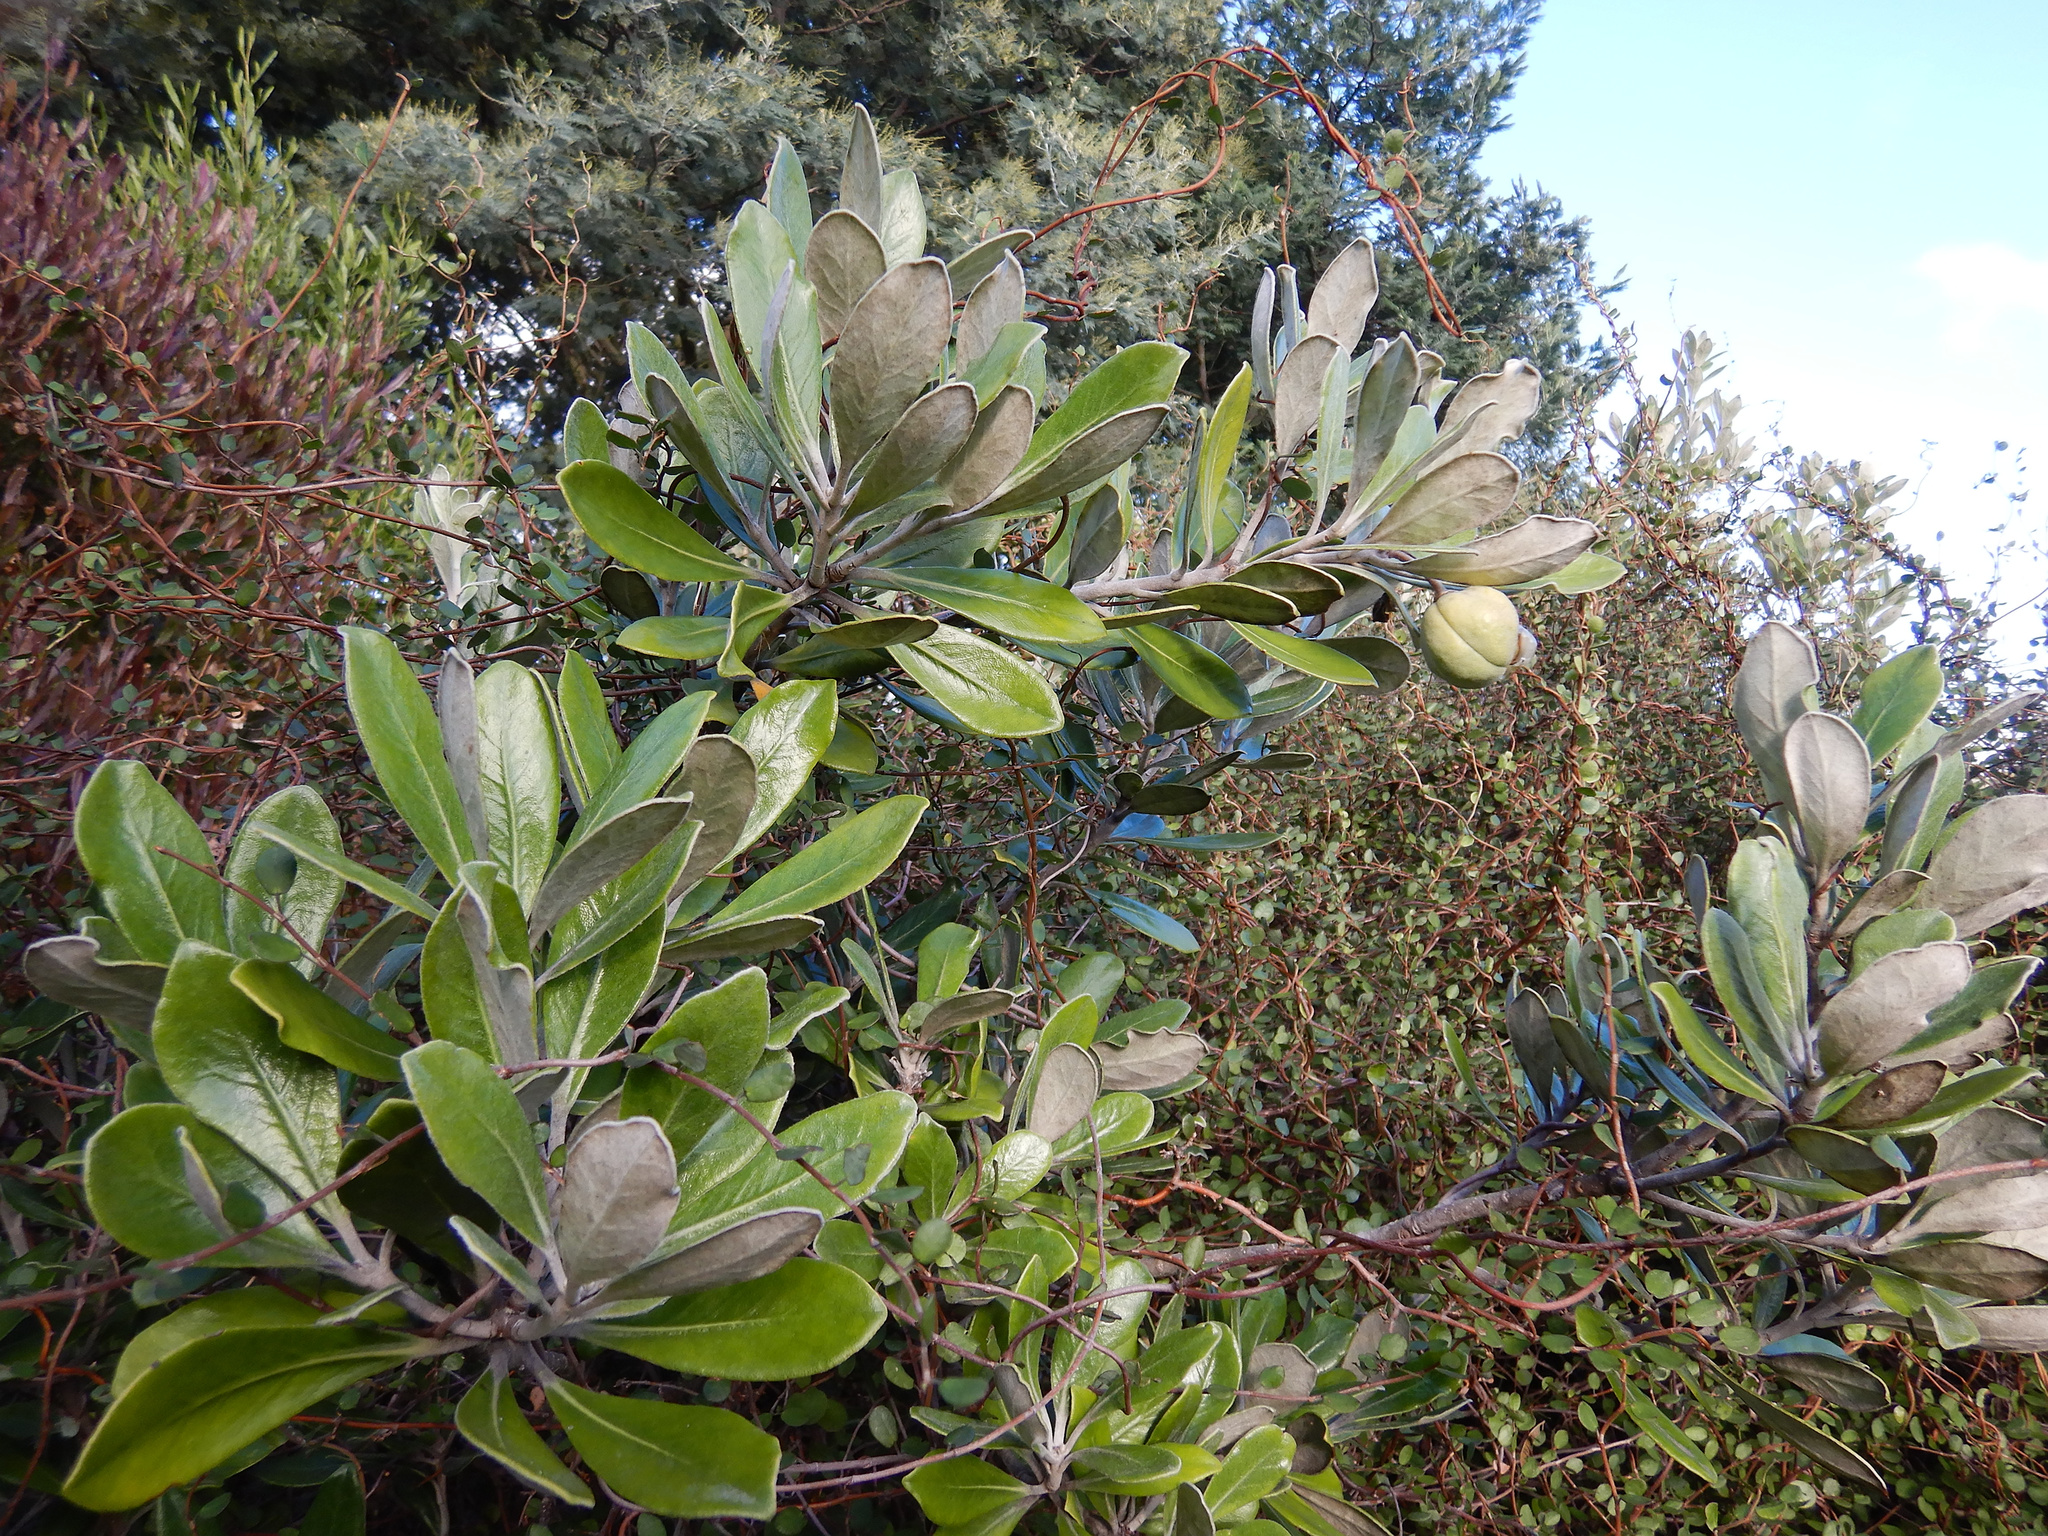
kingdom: Plantae
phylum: Tracheophyta
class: Magnoliopsida
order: Apiales
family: Pittosporaceae
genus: Pittosporum
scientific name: Pittosporum crassifolium
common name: Karo
